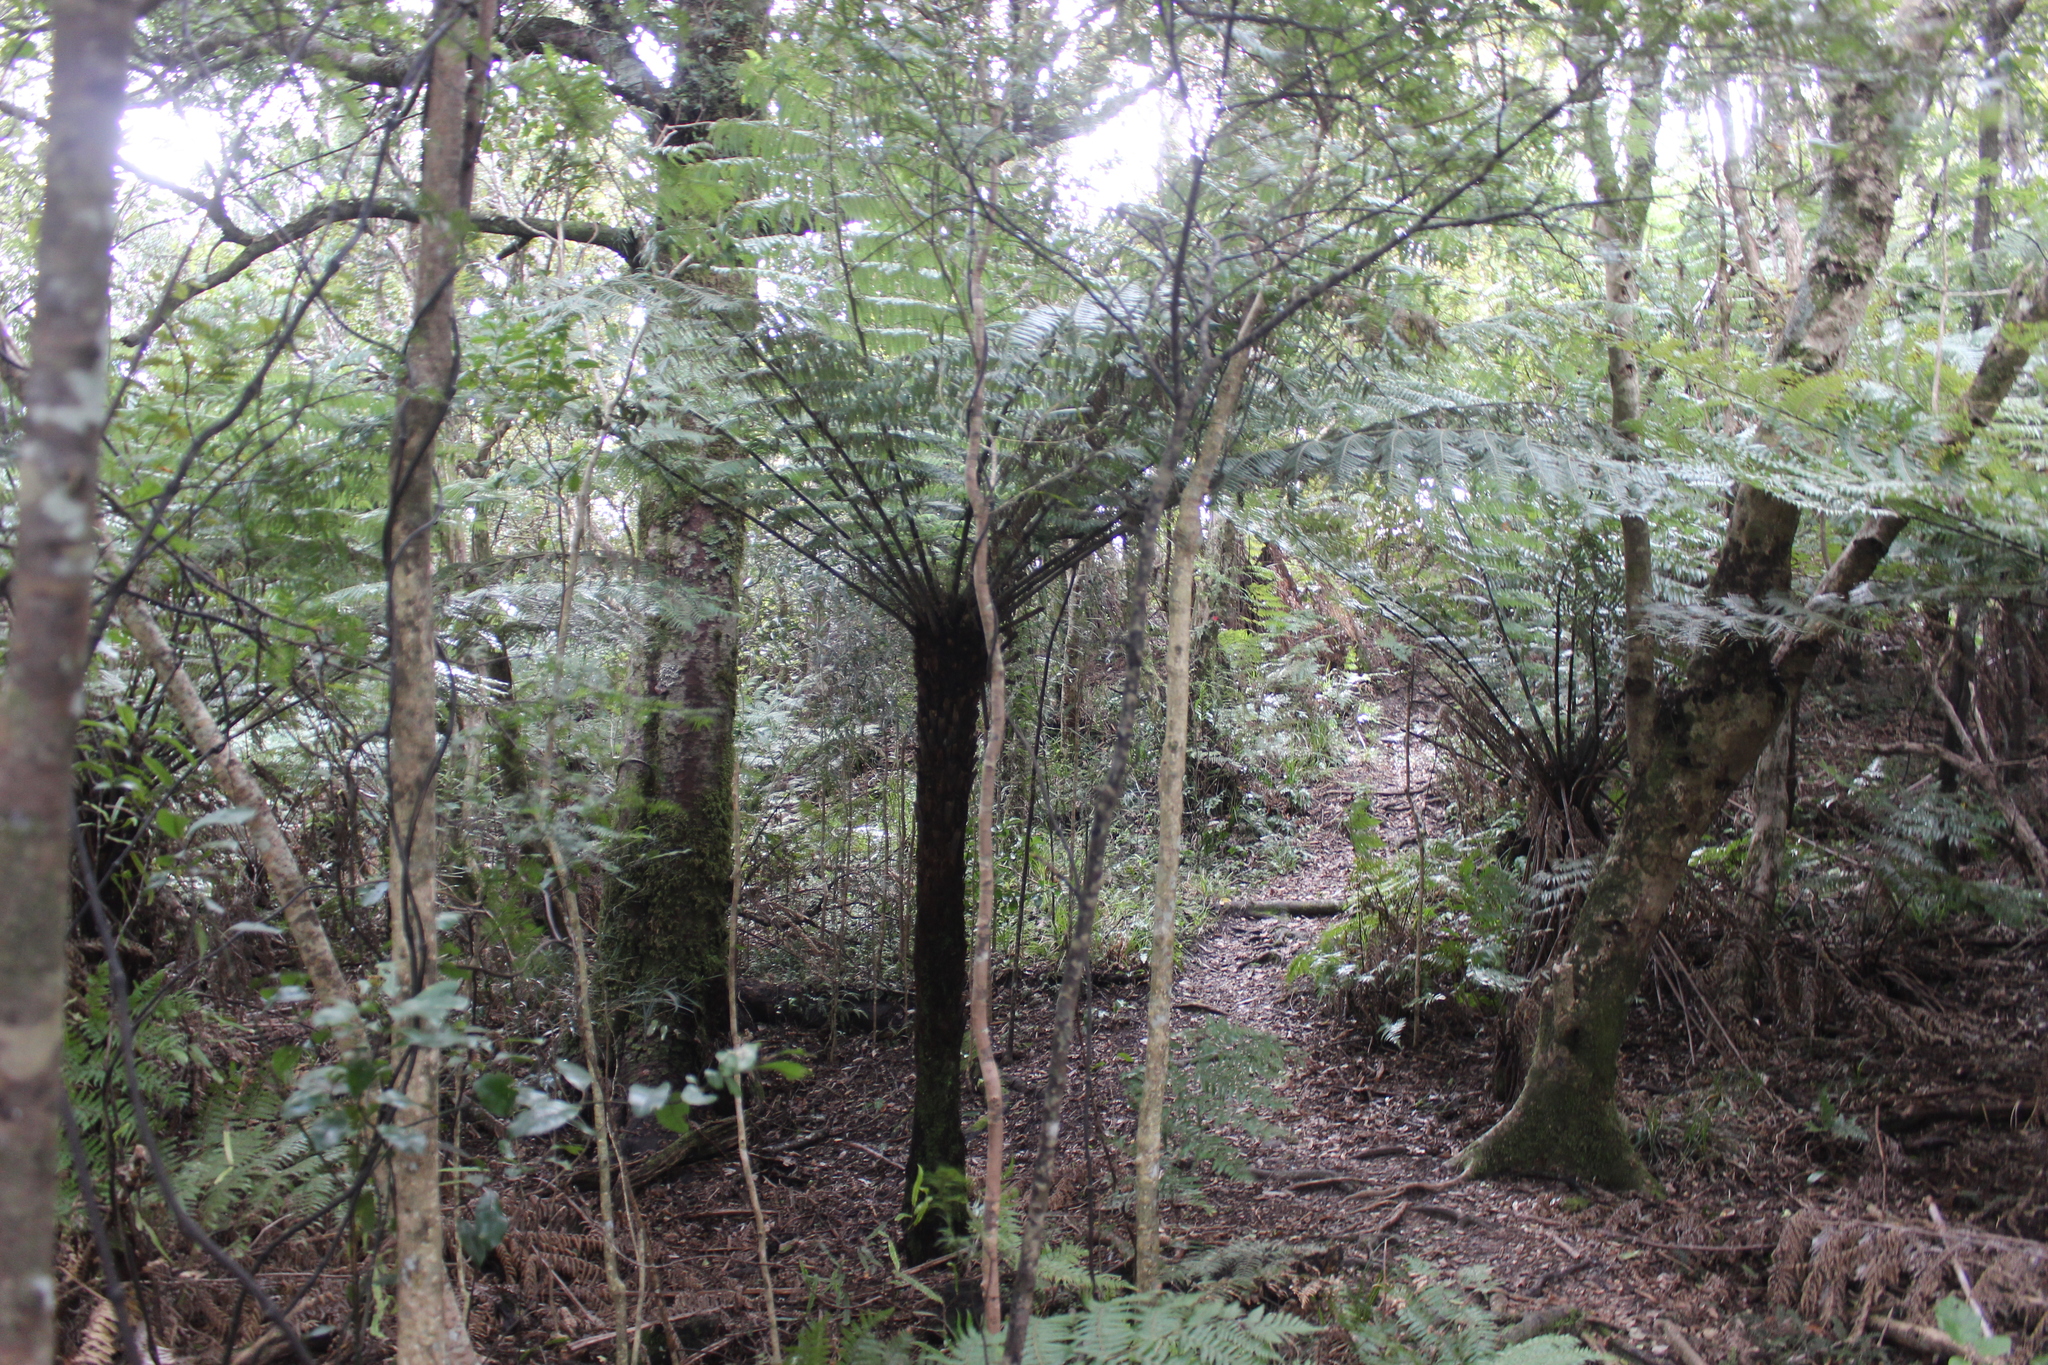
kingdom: Plantae
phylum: Tracheophyta
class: Polypodiopsida
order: Cyatheales
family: Cyatheaceae
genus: Alsophila
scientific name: Alsophila dealbata
